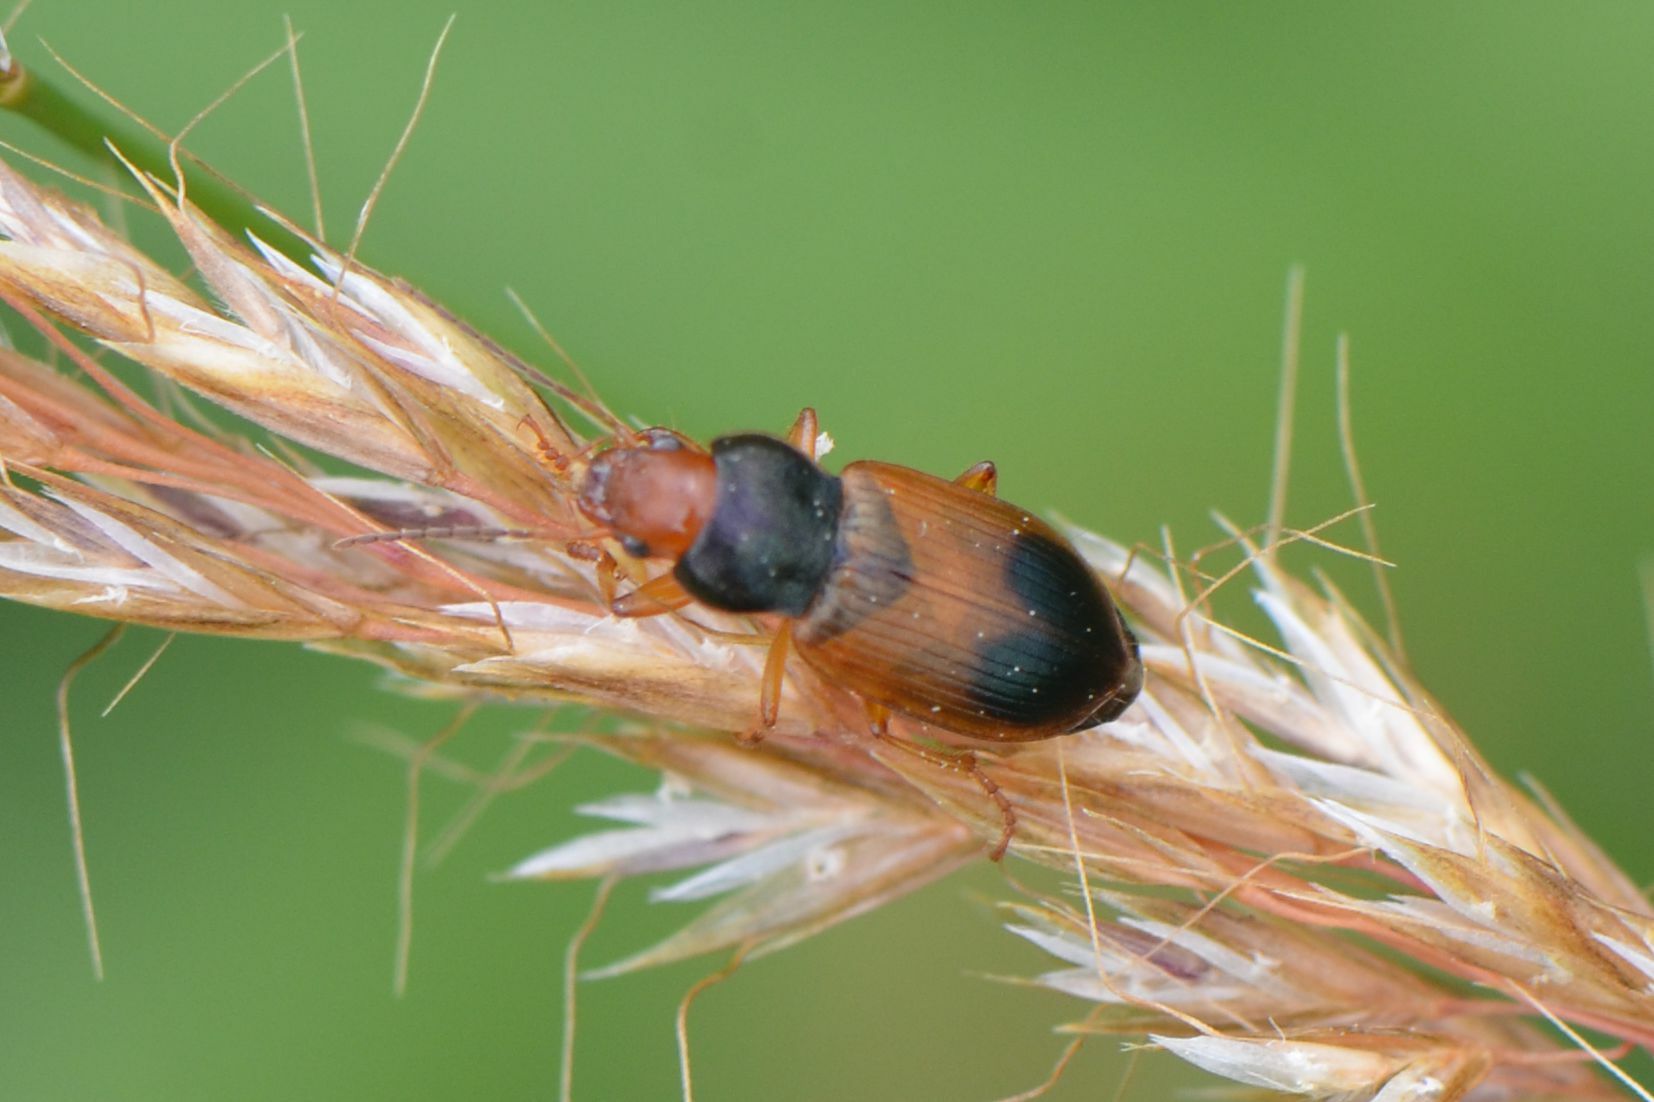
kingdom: Animalia
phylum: Arthropoda
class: Insecta
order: Coleoptera
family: Carabidae
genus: Diachromus
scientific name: Diachromus germanus
